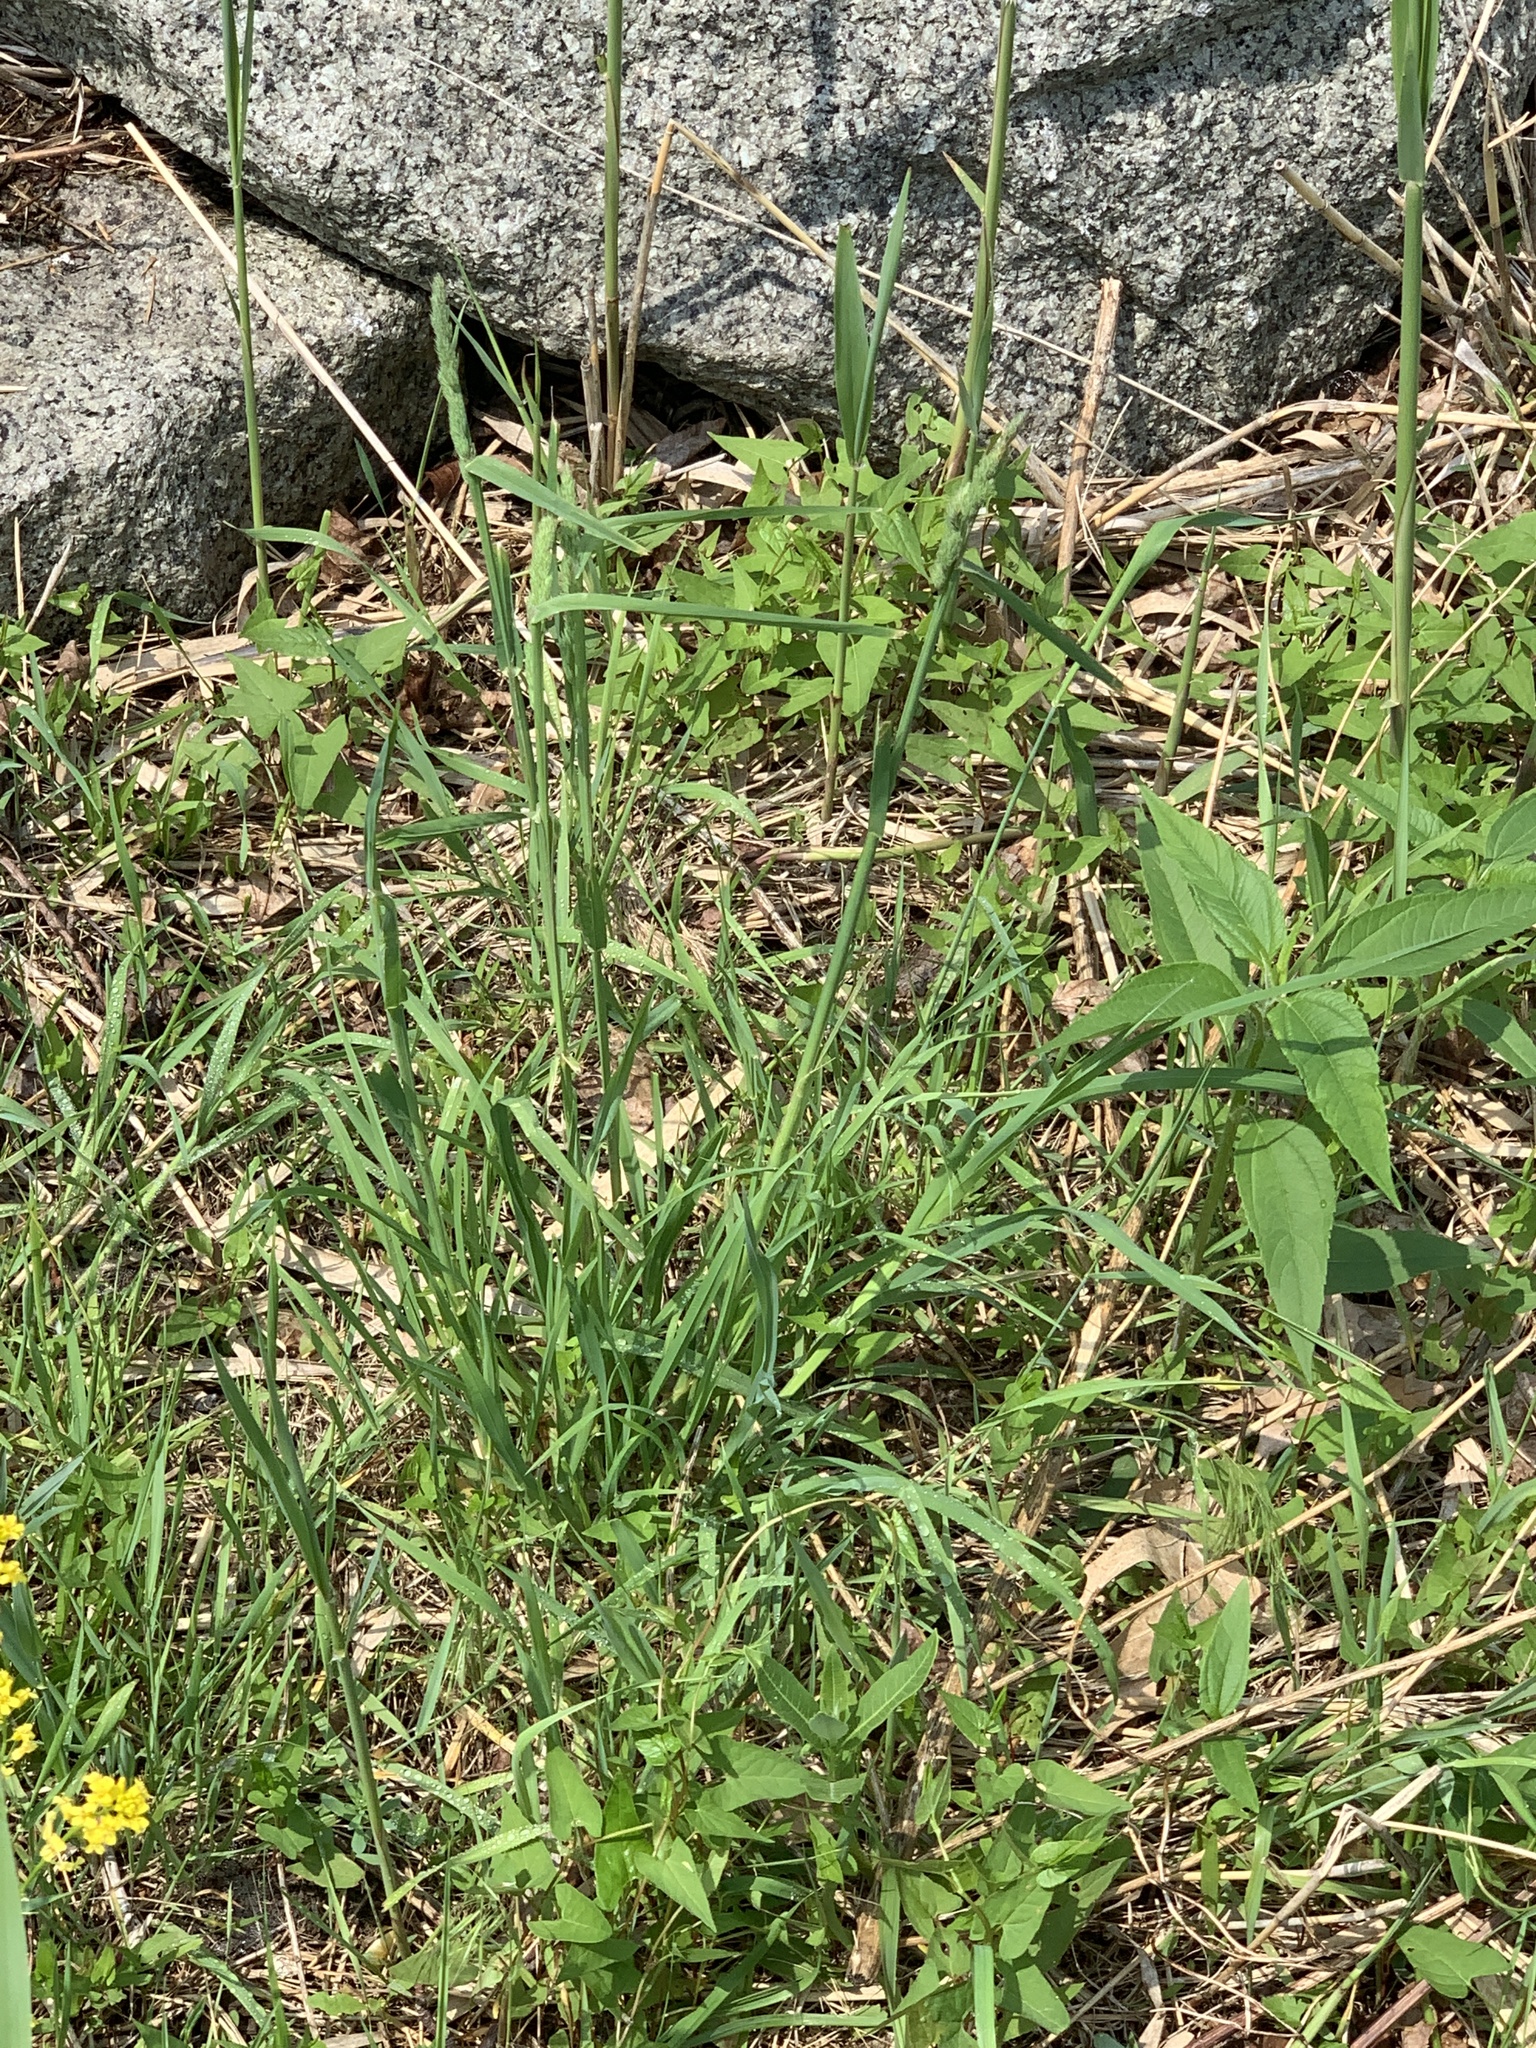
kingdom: Plantae
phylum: Tracheophyta
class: Liliopsida
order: Poales
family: Poaceae
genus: Dactylis
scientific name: Dactylis glomerata
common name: Orchardgrass
